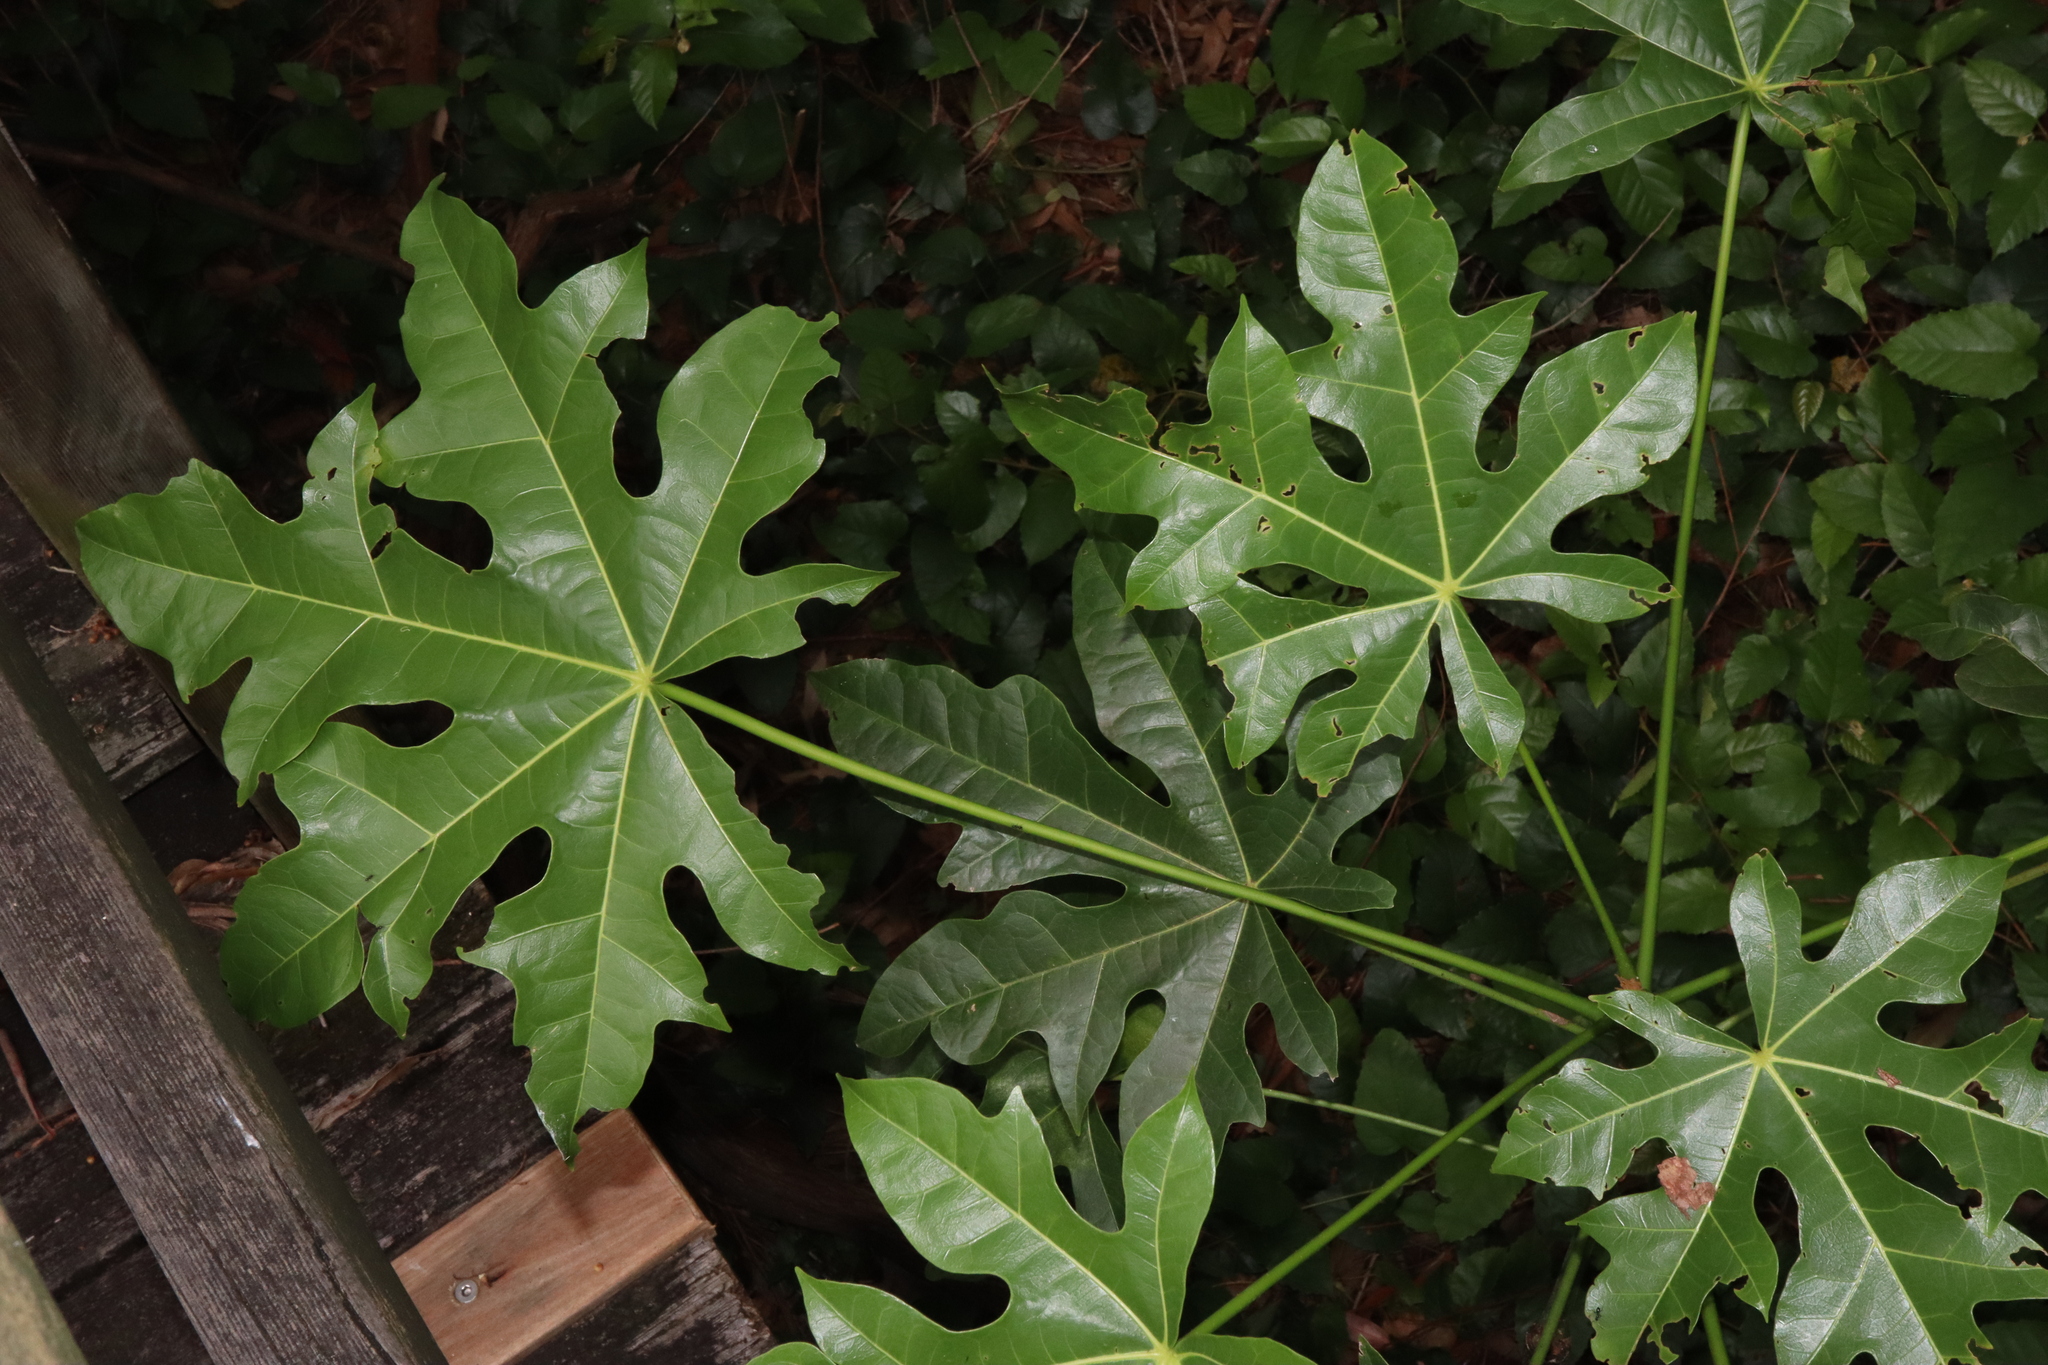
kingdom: Plantae
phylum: Tracheophyta
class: Magnoliopsida
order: Malvales
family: Malvaceae
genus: Brachychiton
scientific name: Brachychiton acerifolius
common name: Illawarra flame tree
